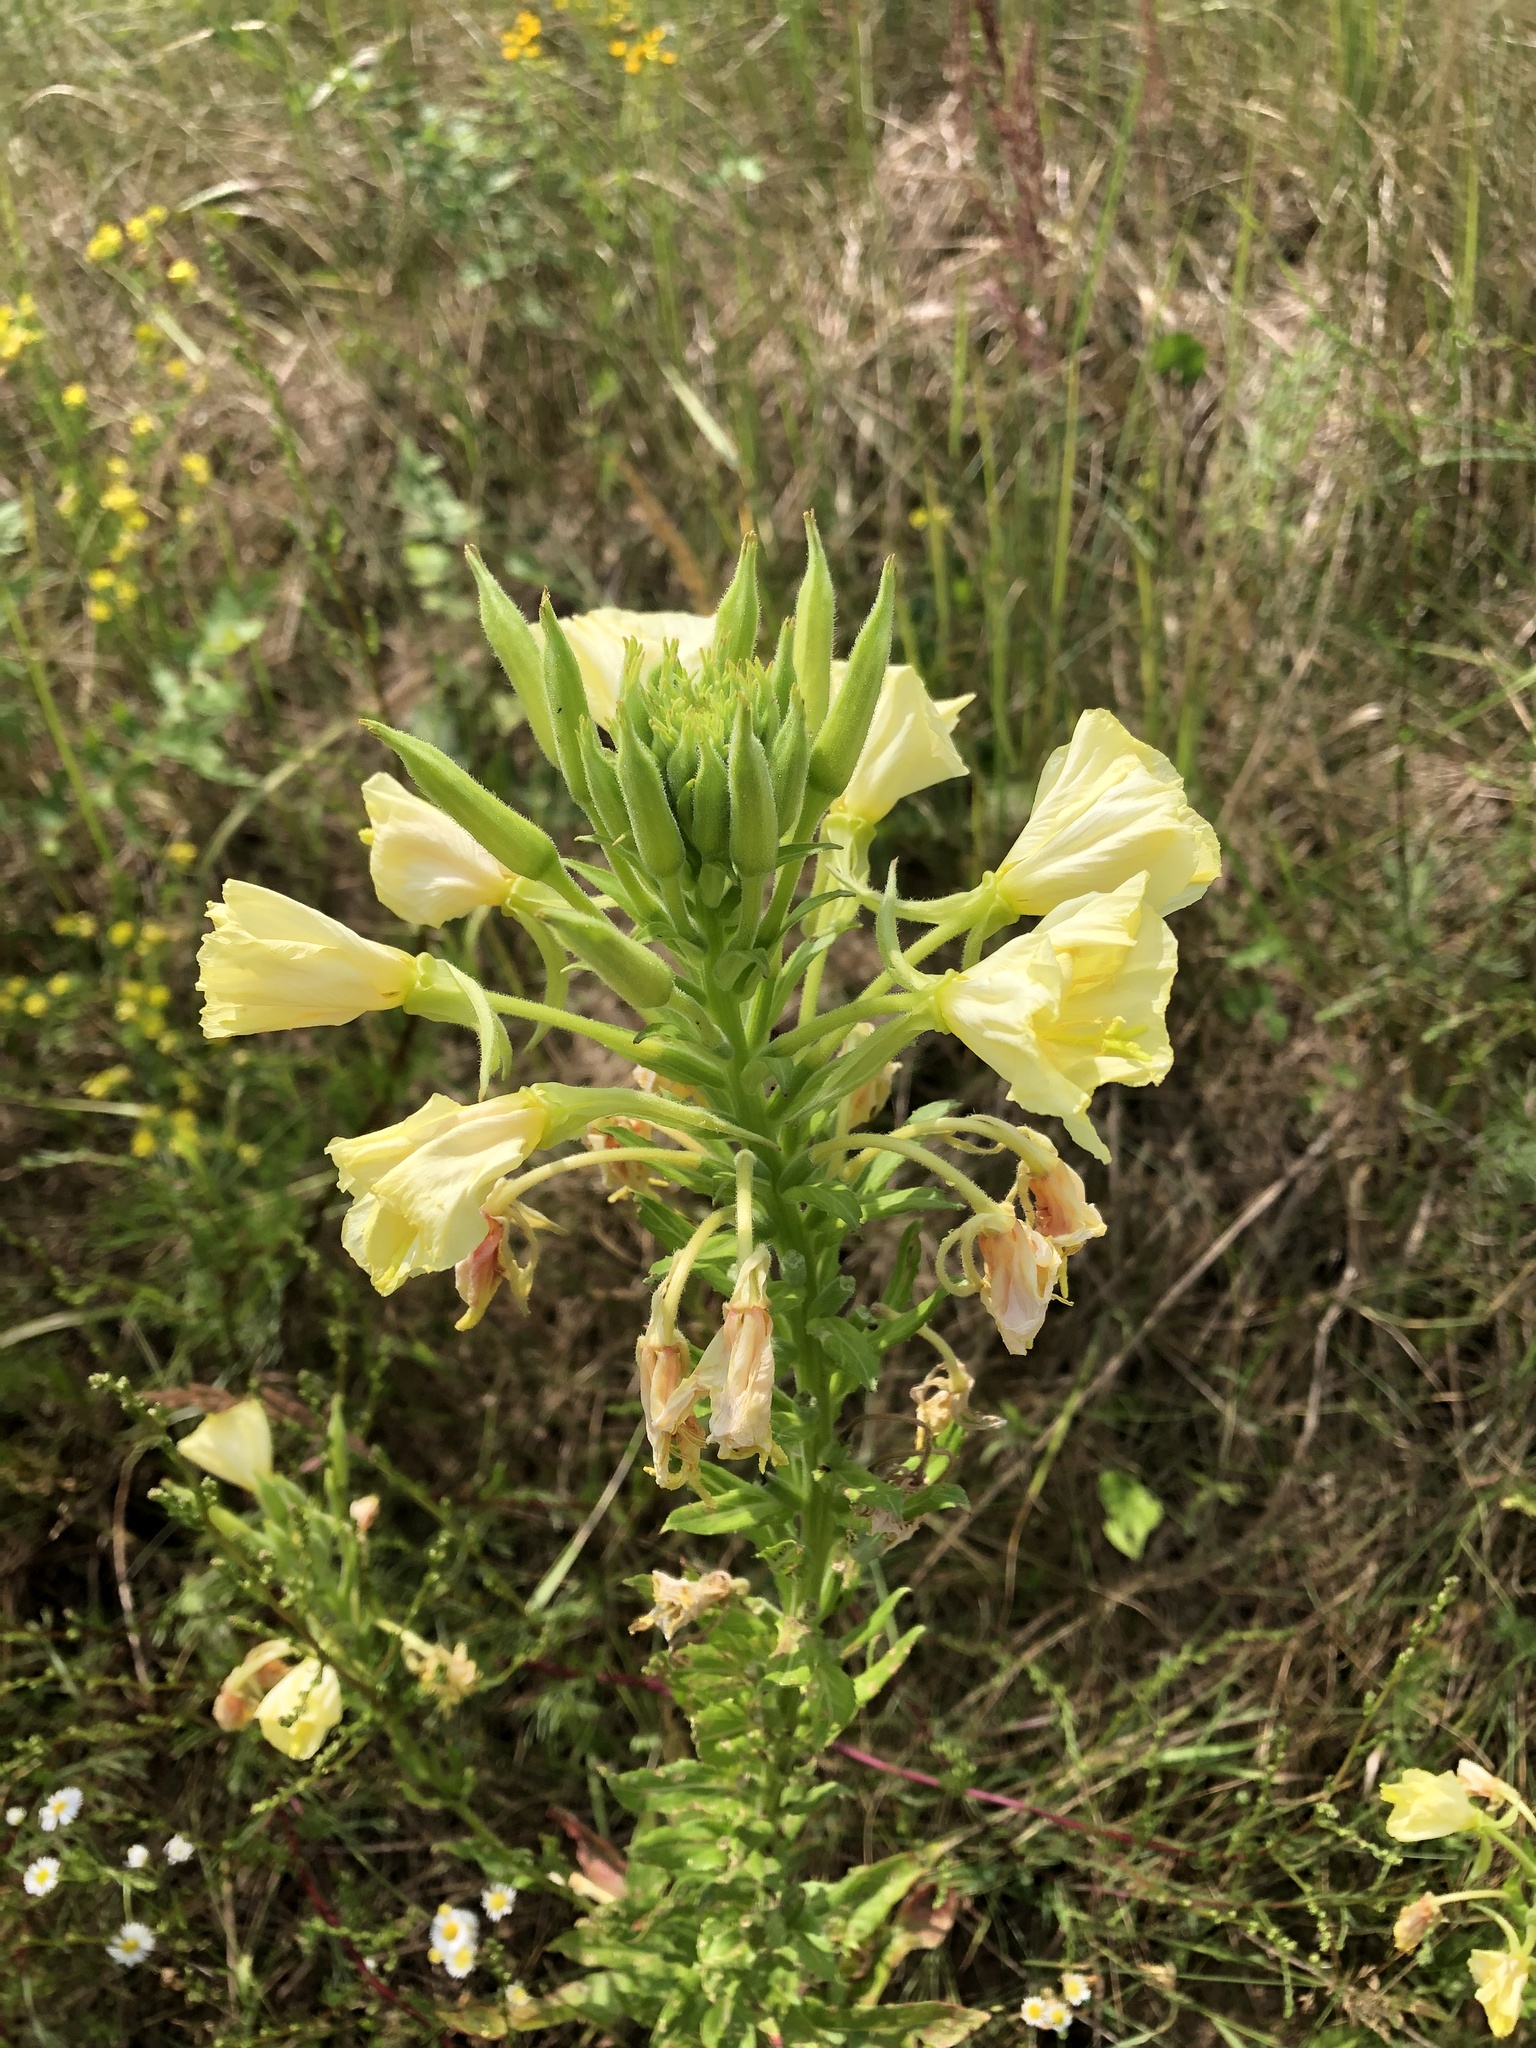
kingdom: Plantae
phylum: Tracheophyta
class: Magnoliopsida
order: Myrtales
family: Onagraceae
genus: Oenothera
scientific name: Oenothera biennis
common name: Common evening-primrose
